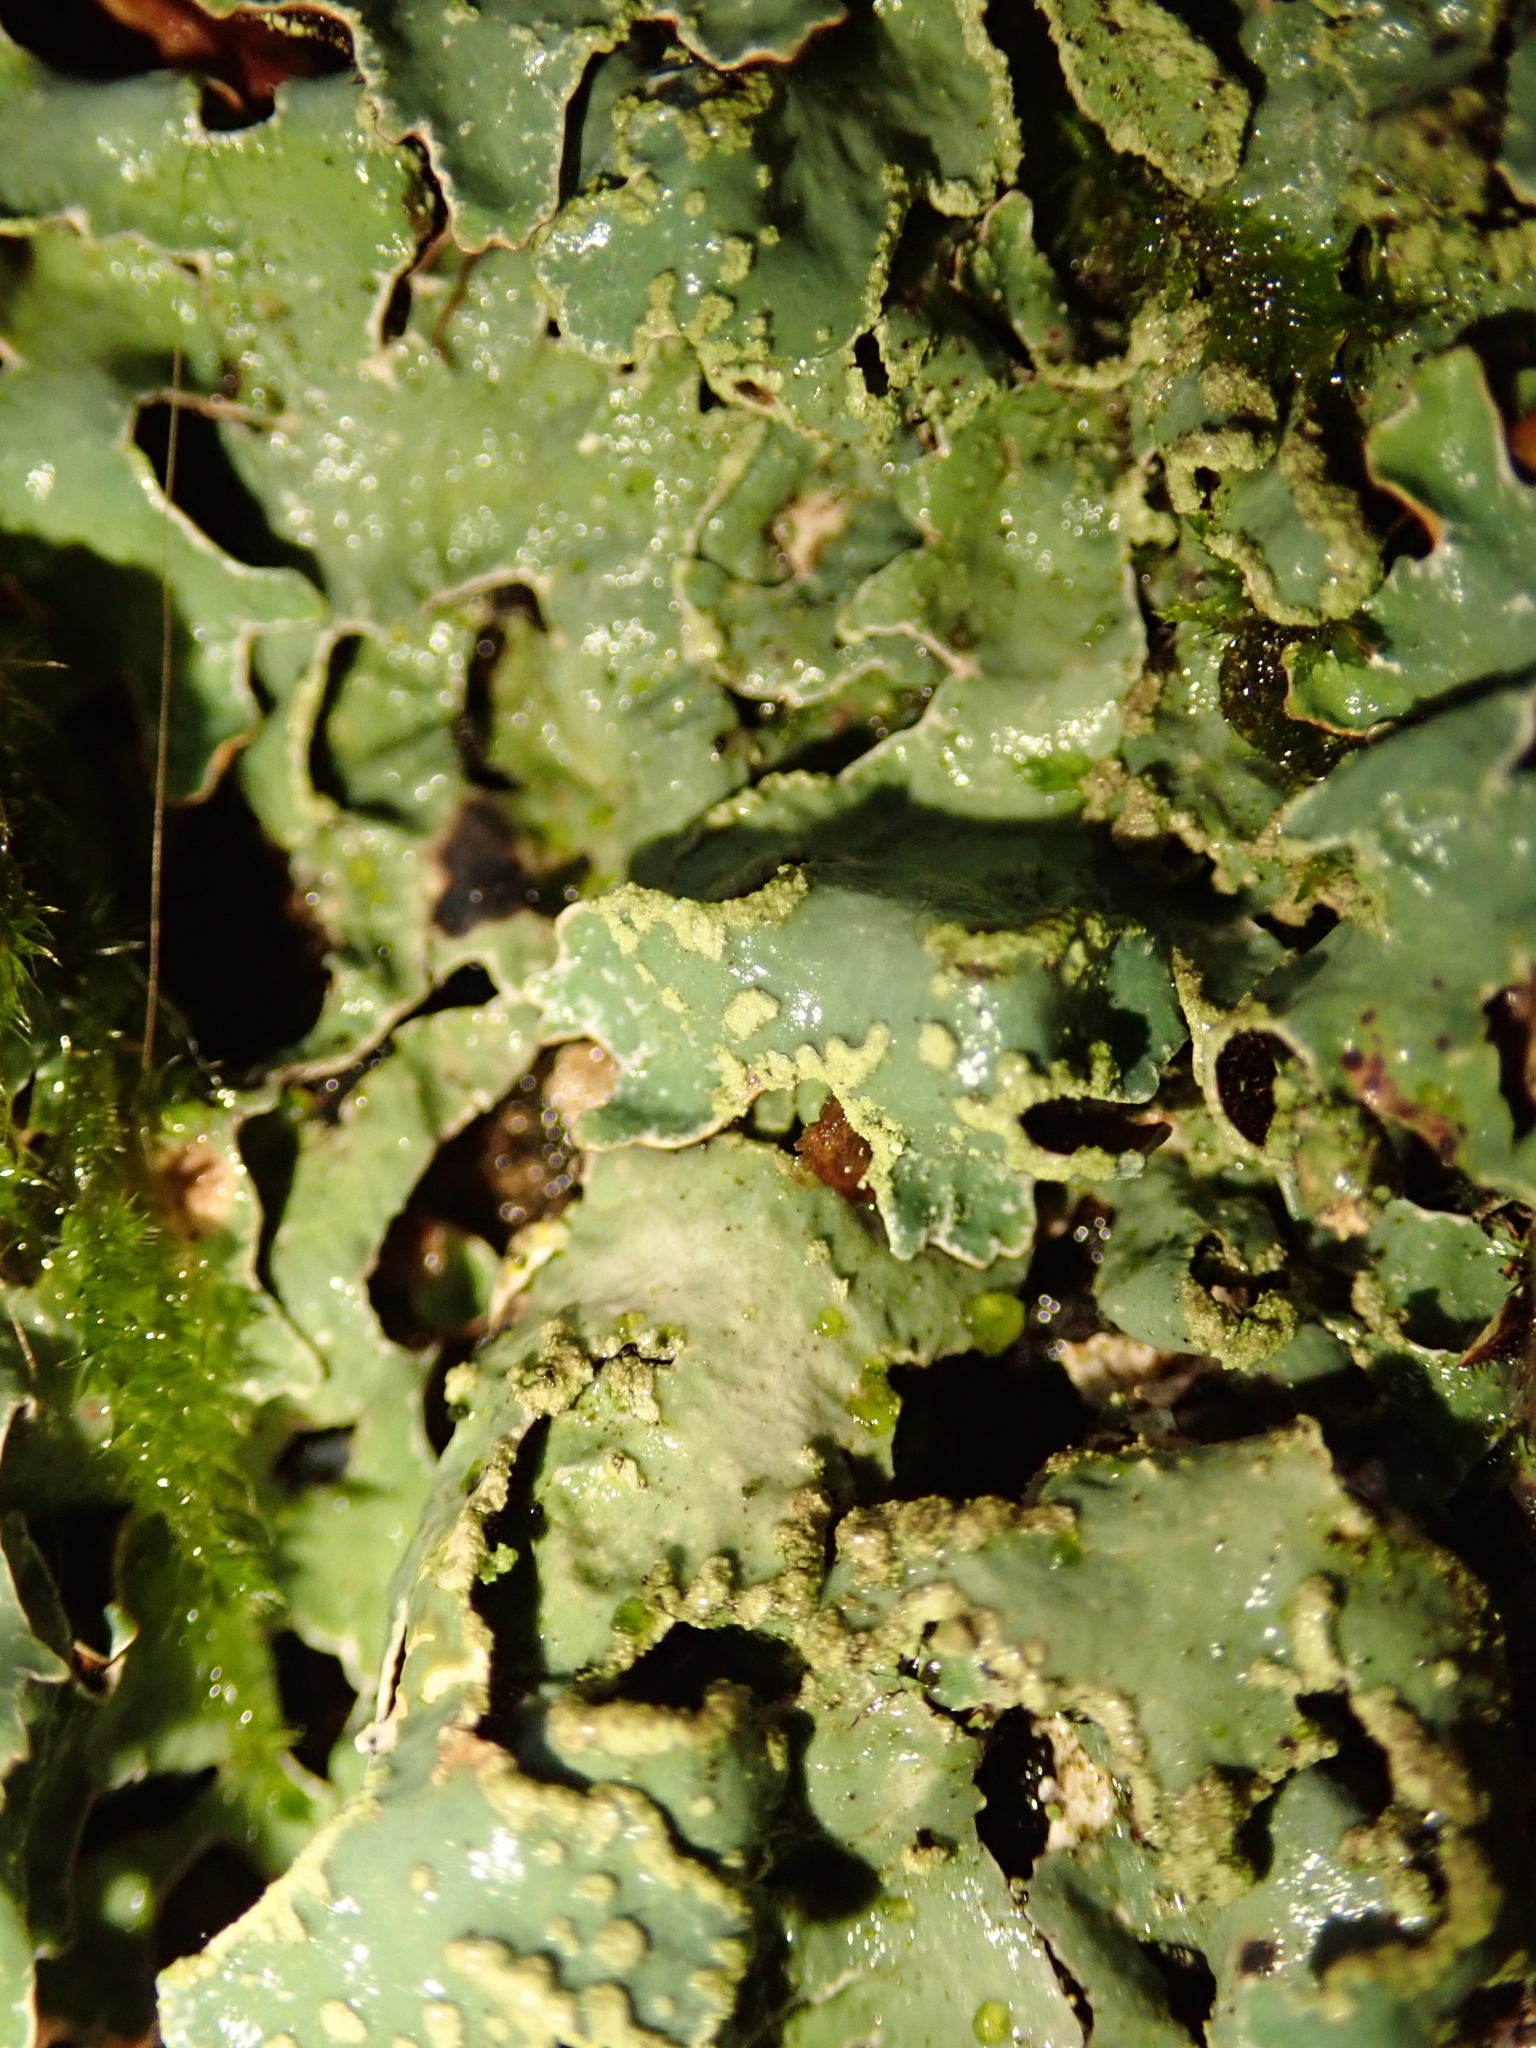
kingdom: Fungi
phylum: Ascomycota
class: Lecanoromycetes
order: Lecanorales
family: Parmeliaceae
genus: Parmelia
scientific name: Parmelia sulcata
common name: Netted shield lichen
